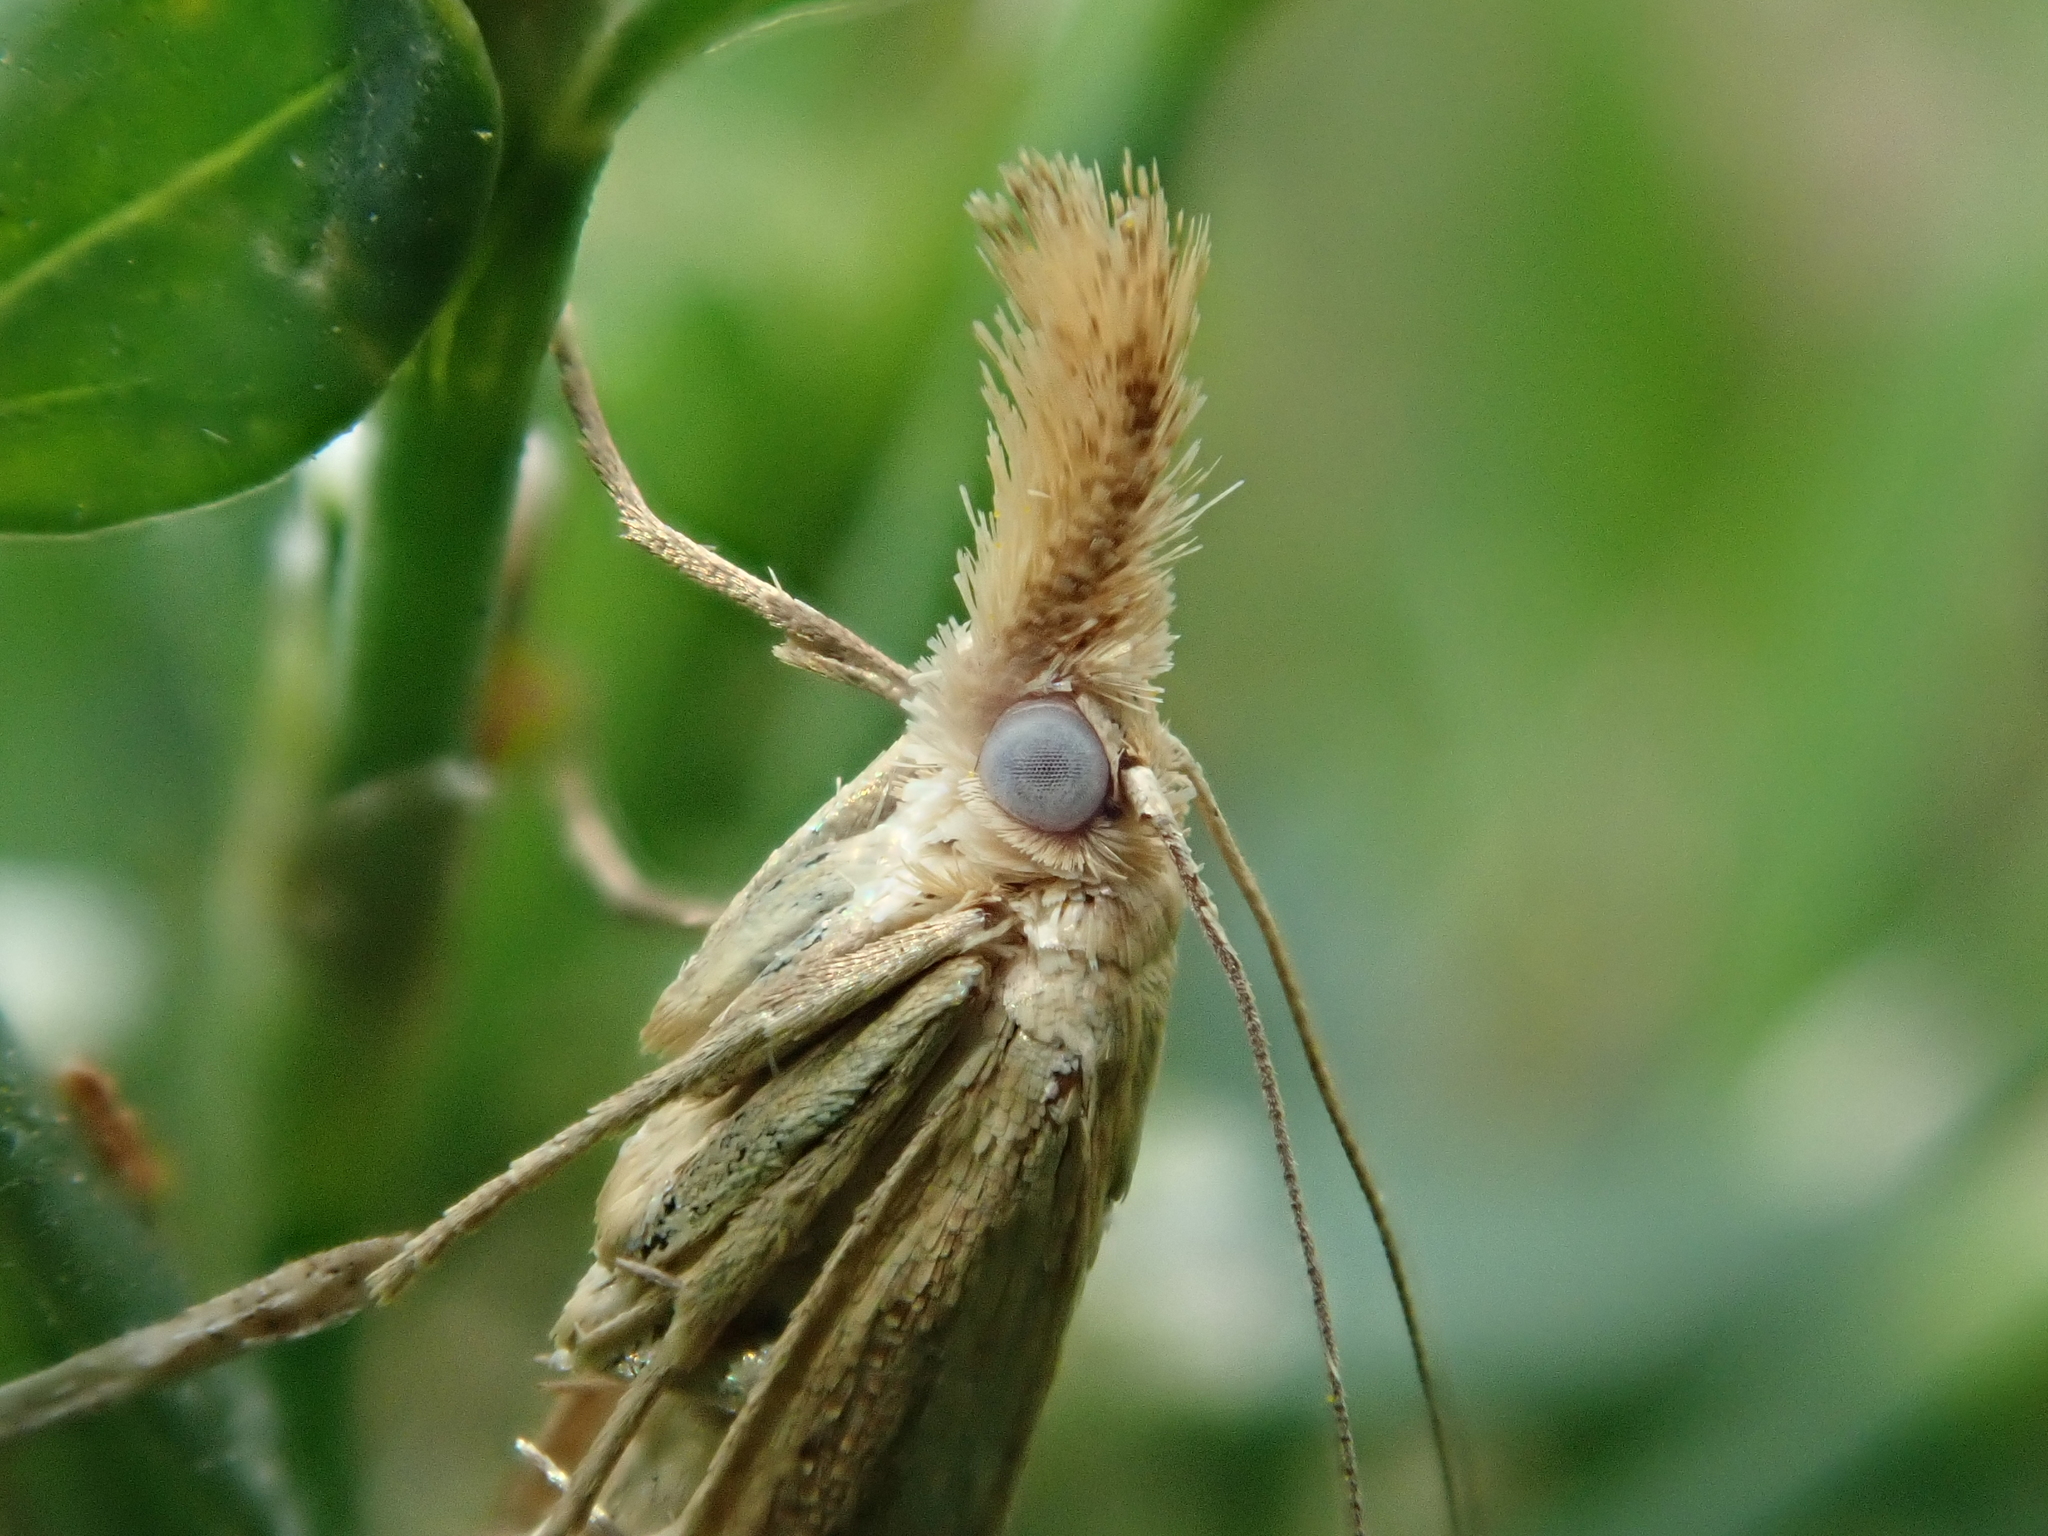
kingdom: Animalia
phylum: Arthropoda
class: Insecta
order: Lepidoptera
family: Crambidae
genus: Agriphila
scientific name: Agriphila straminella
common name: Straw grass-veneer
